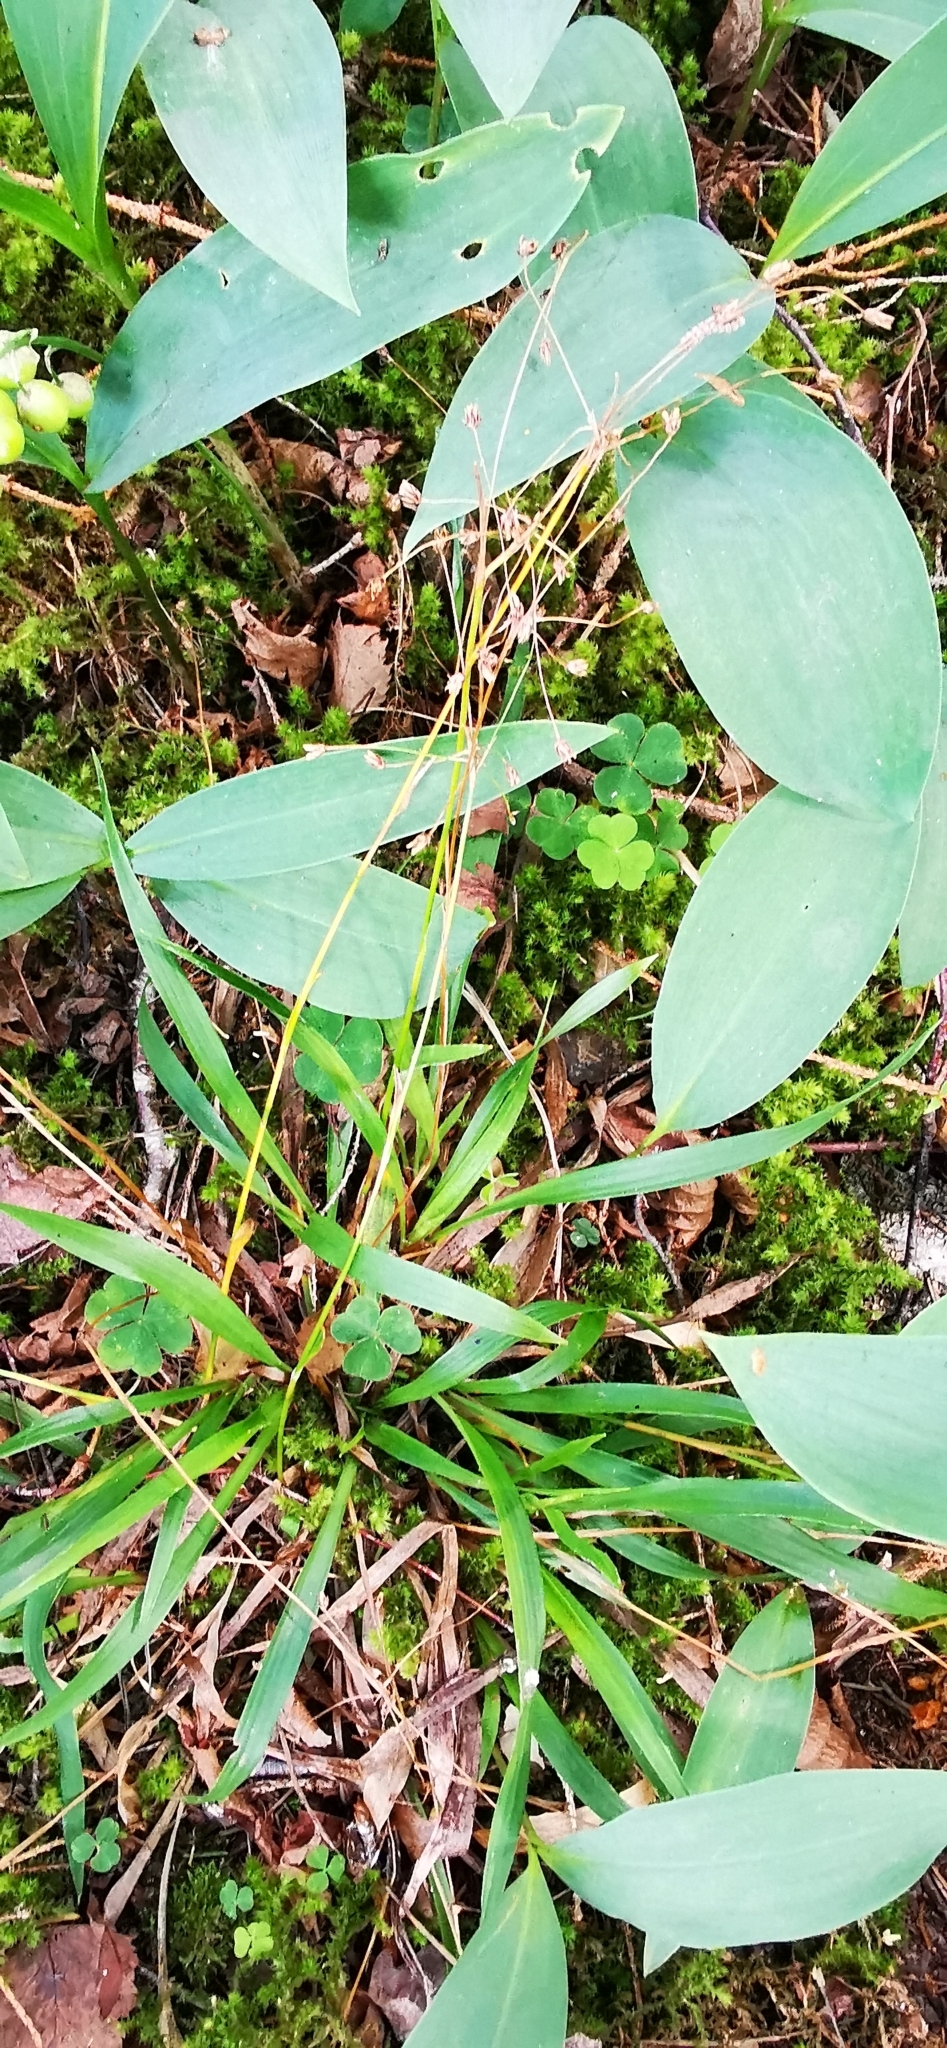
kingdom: Plantae
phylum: Tracheophyta
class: Liliopsida
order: Poales
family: Juncaceae
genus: Luzula
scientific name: Luzula pilosa
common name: Hairy wood-rush
